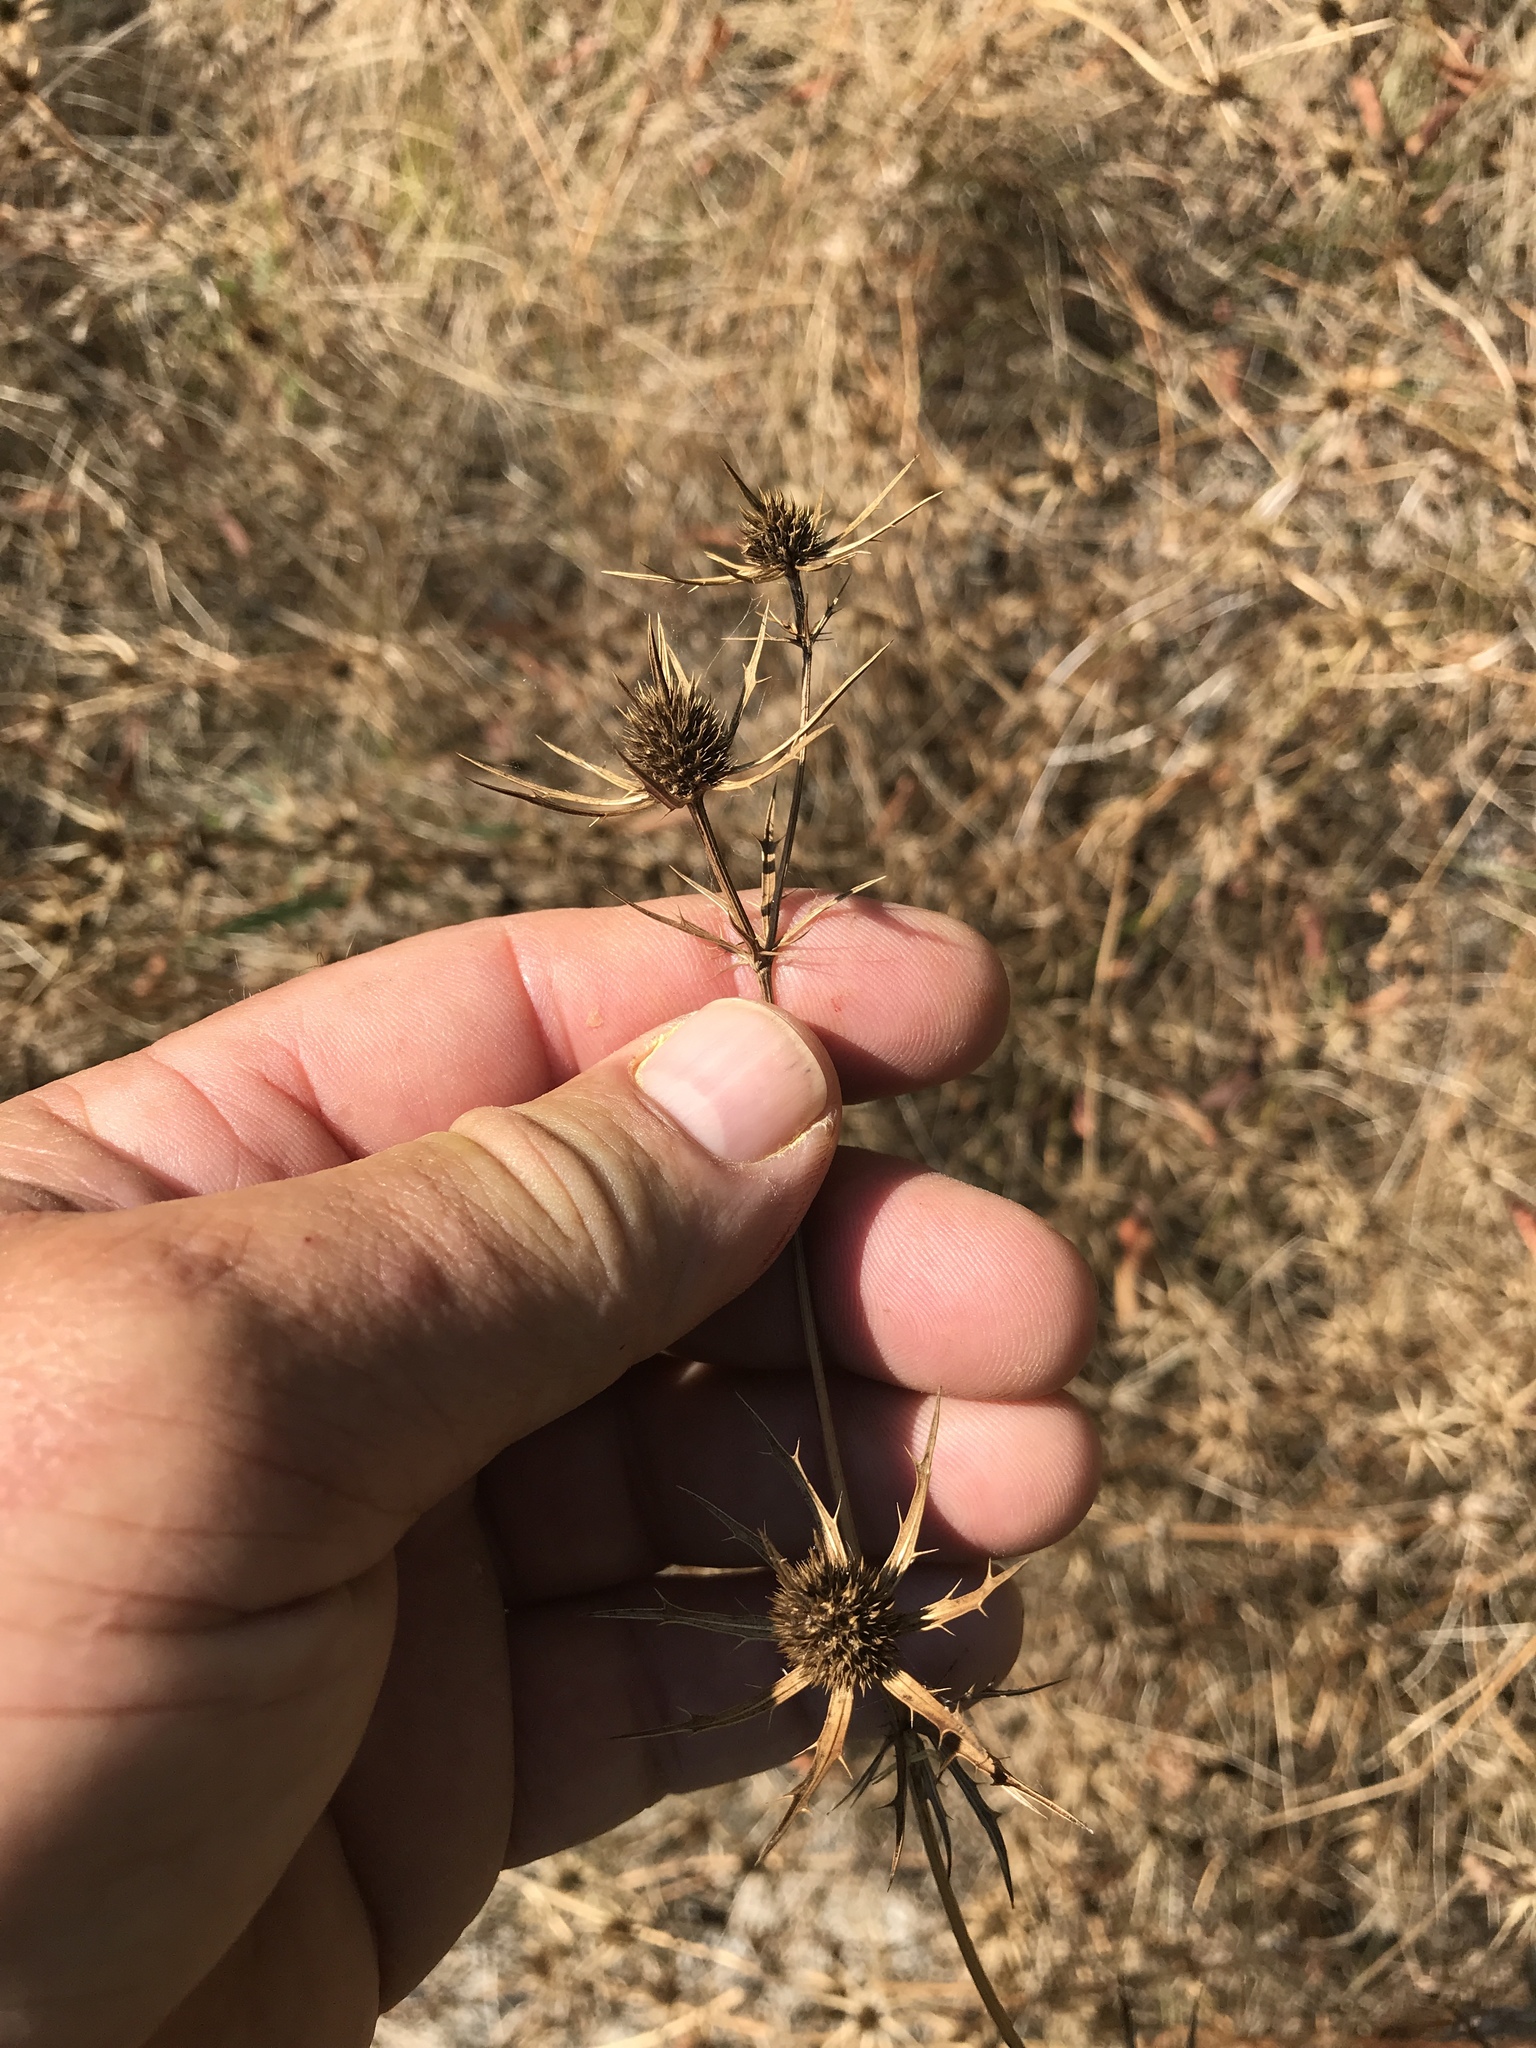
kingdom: Plantae
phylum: Tracheophyta
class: Magnoliopsida
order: Apiales
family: Apiaceae
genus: Eryngium
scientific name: Eryngium hookeri
